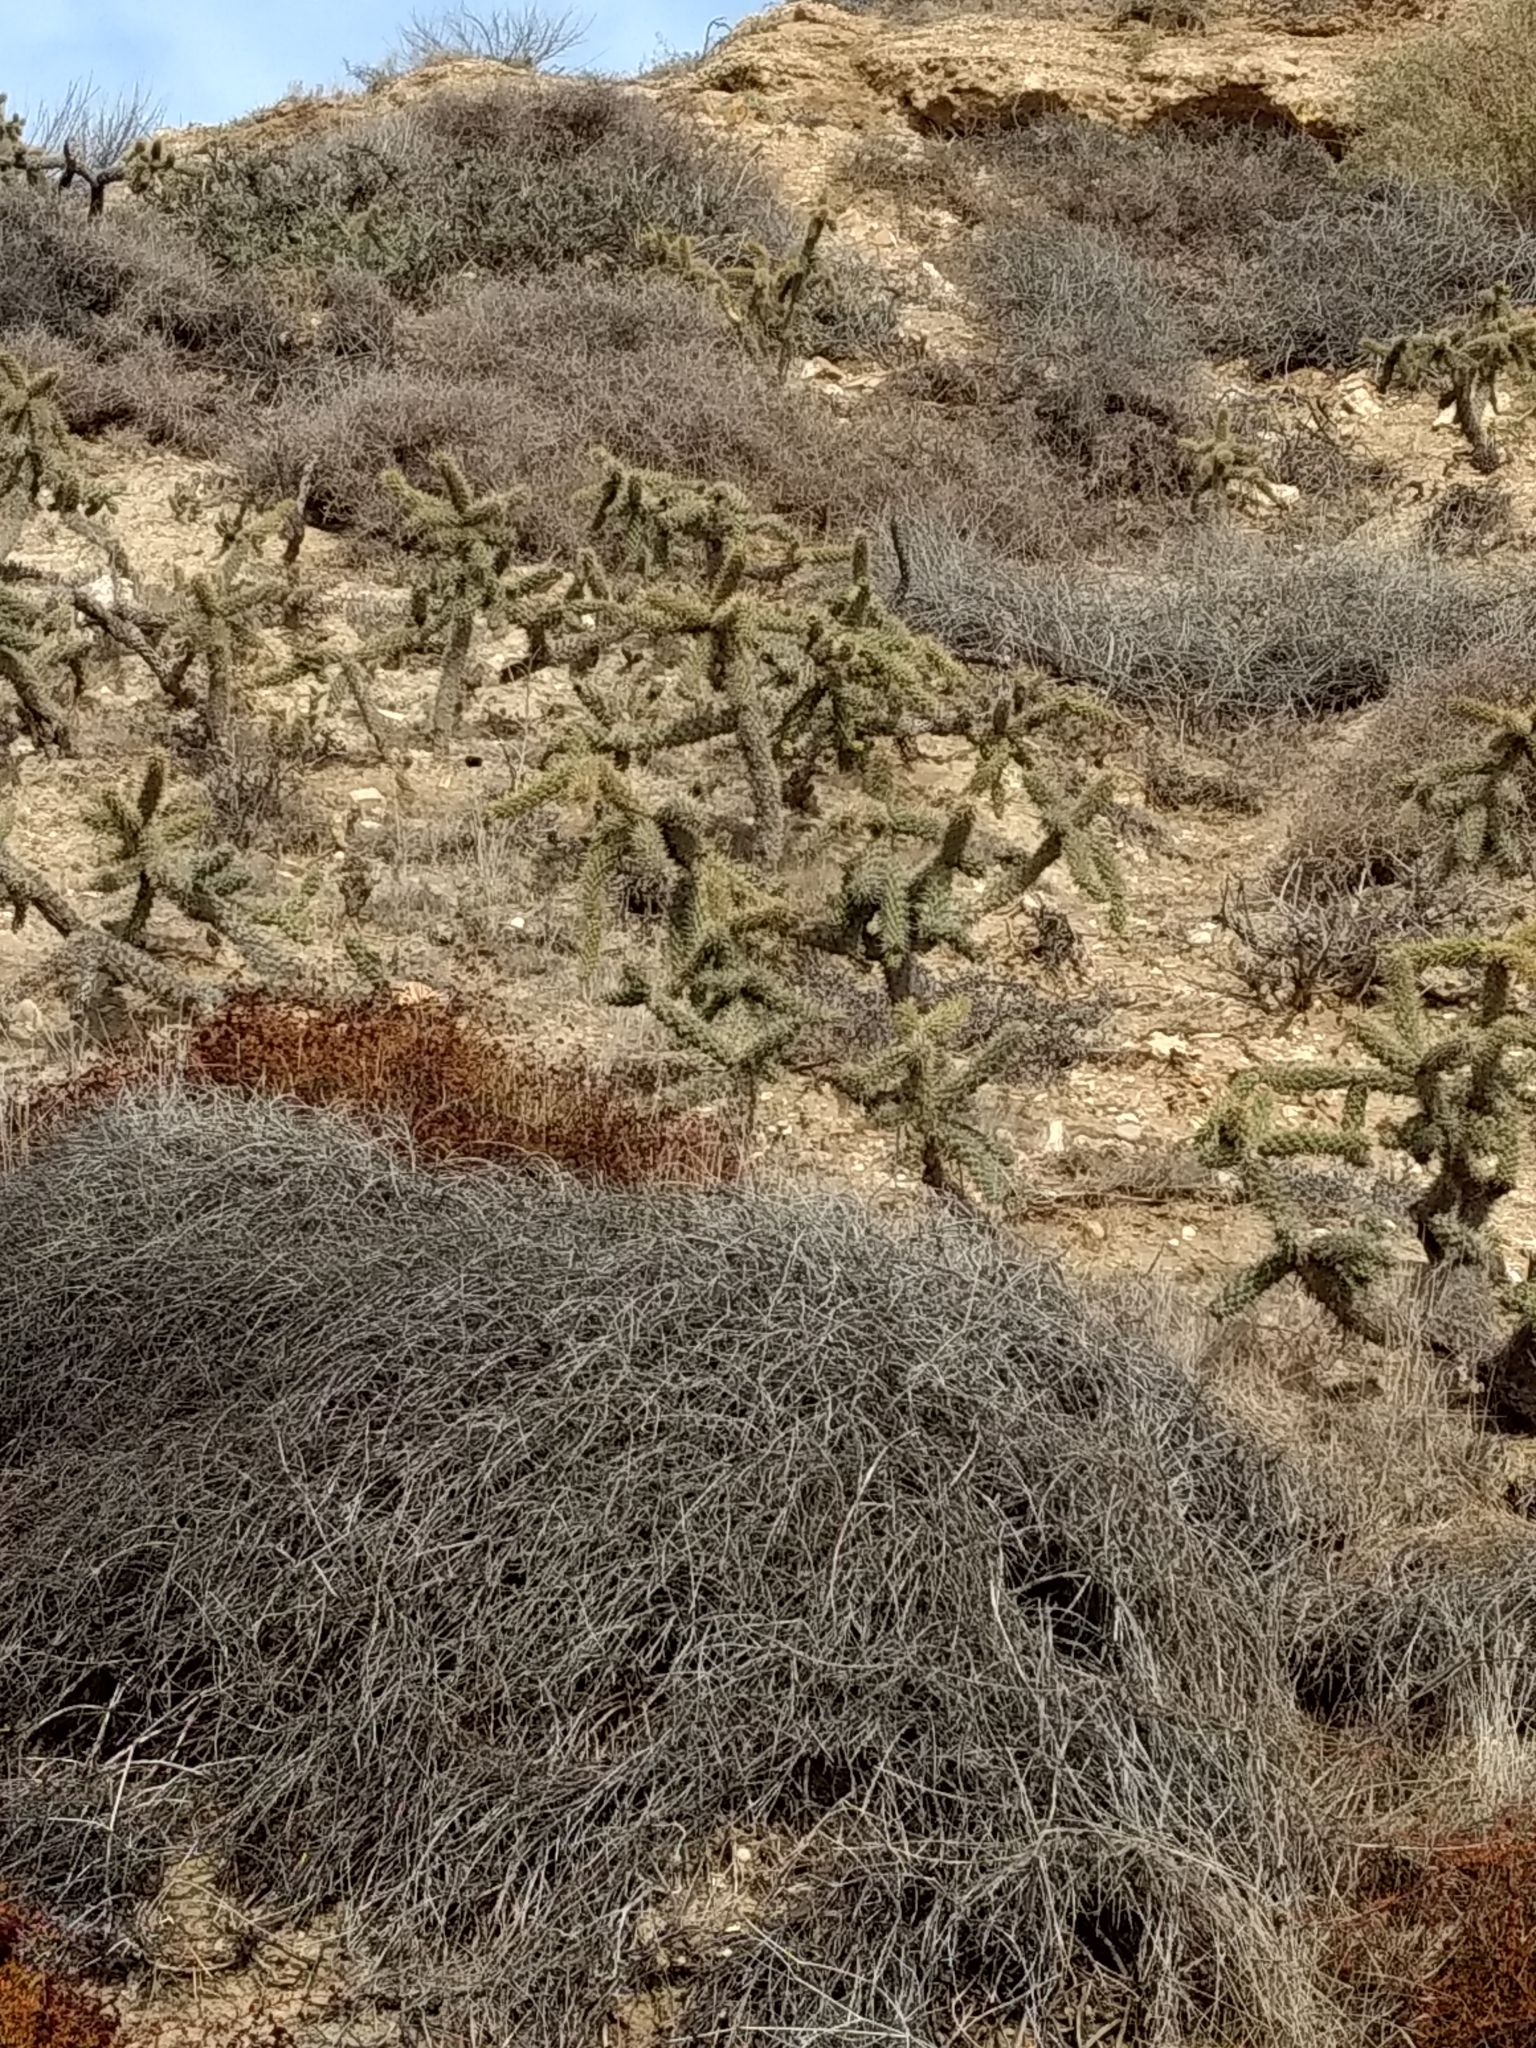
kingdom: Plantae
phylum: Tracheophyta
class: Magnoliopsida
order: Caryophyllales
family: Cactaceae
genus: Cylindropuntia
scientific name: Cylindropuntia prolifera
